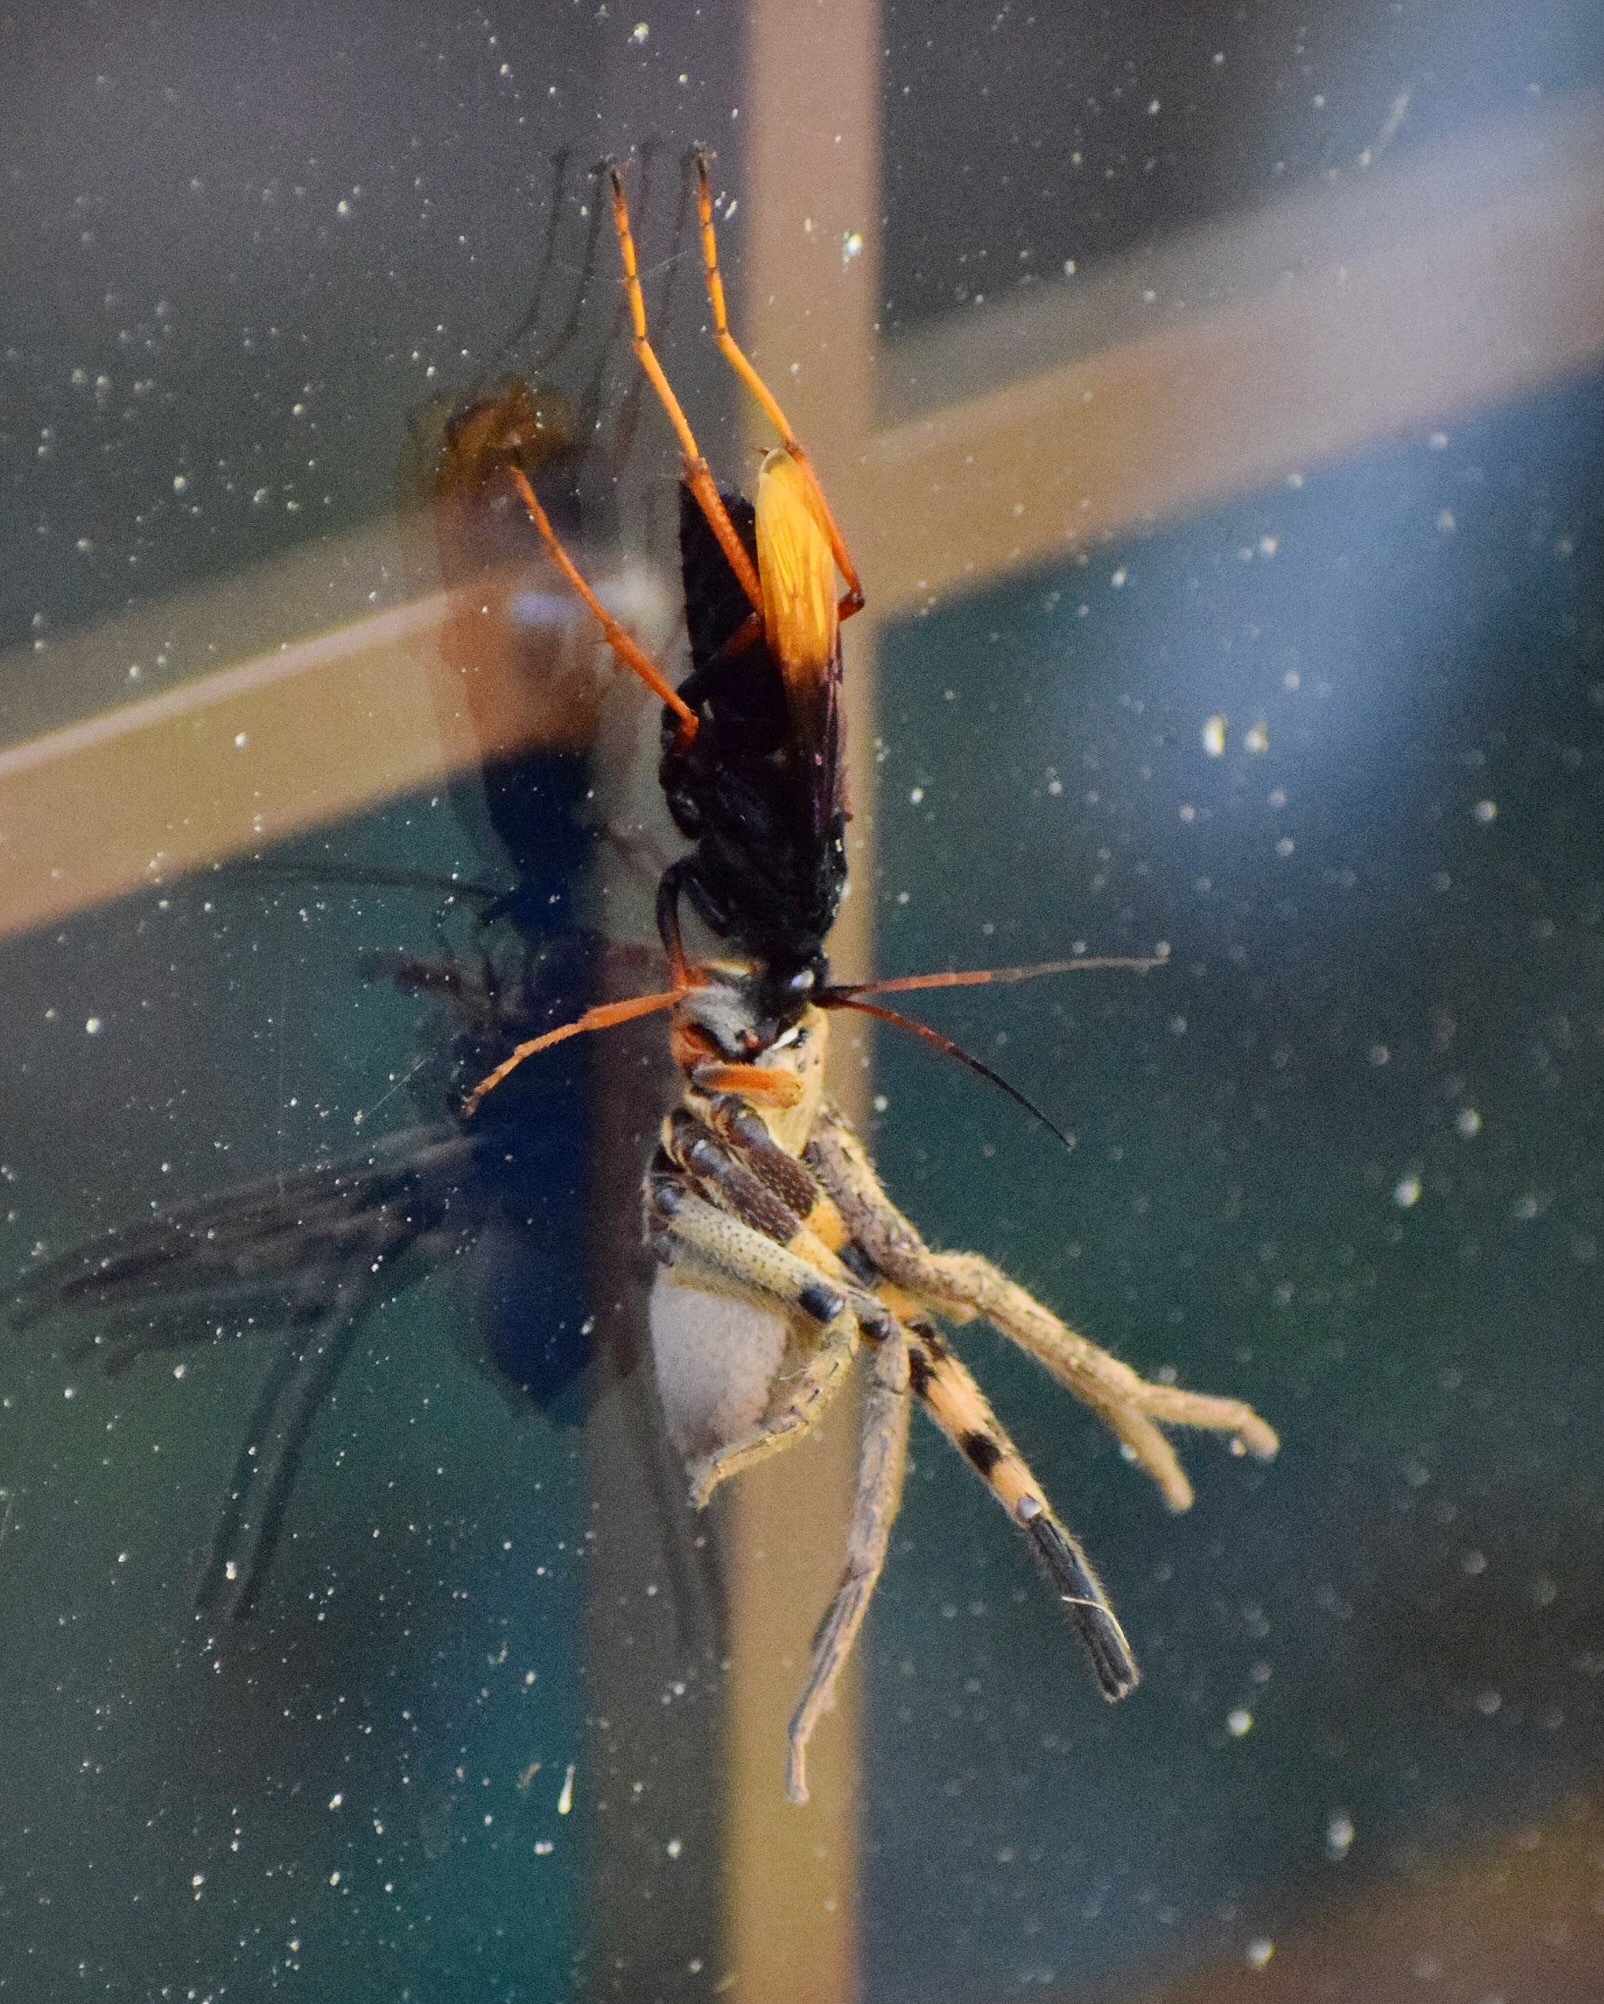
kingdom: Animalia
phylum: Arthropoda
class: Arachnida
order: Araneae
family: Sparassidae
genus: Palystes
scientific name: Palystes superciliosus
